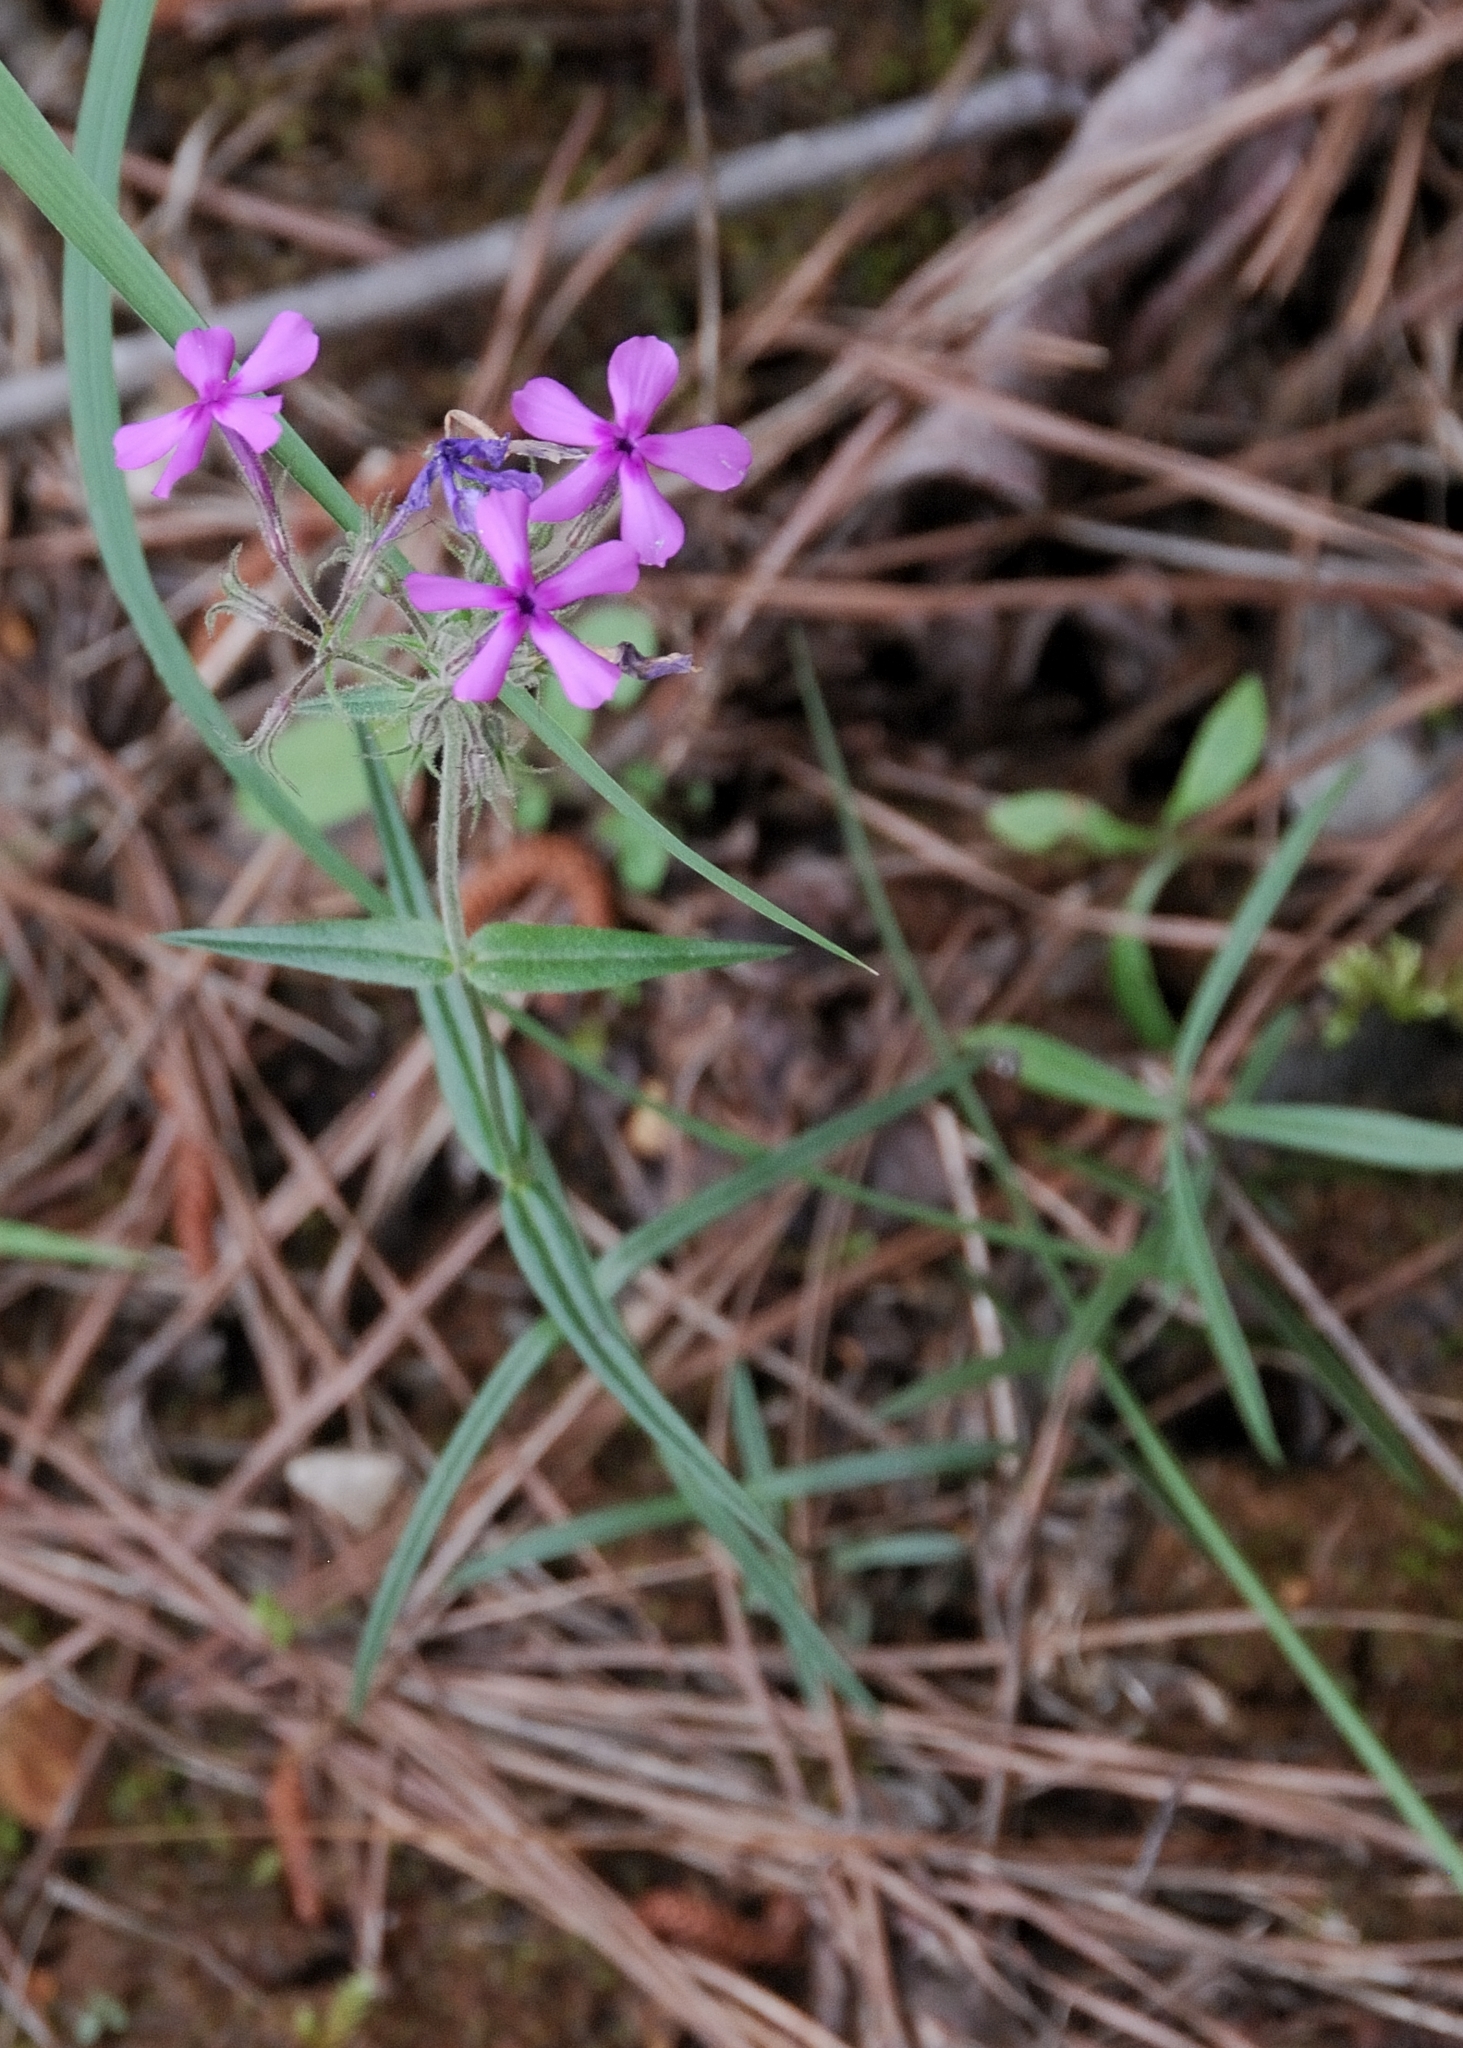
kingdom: Plantae
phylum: Tracheophyta
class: Magnoliopsida
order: Ericales
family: Polemoniaceae
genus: Phlox
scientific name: Phlox pilosa
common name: Prairie phlox
